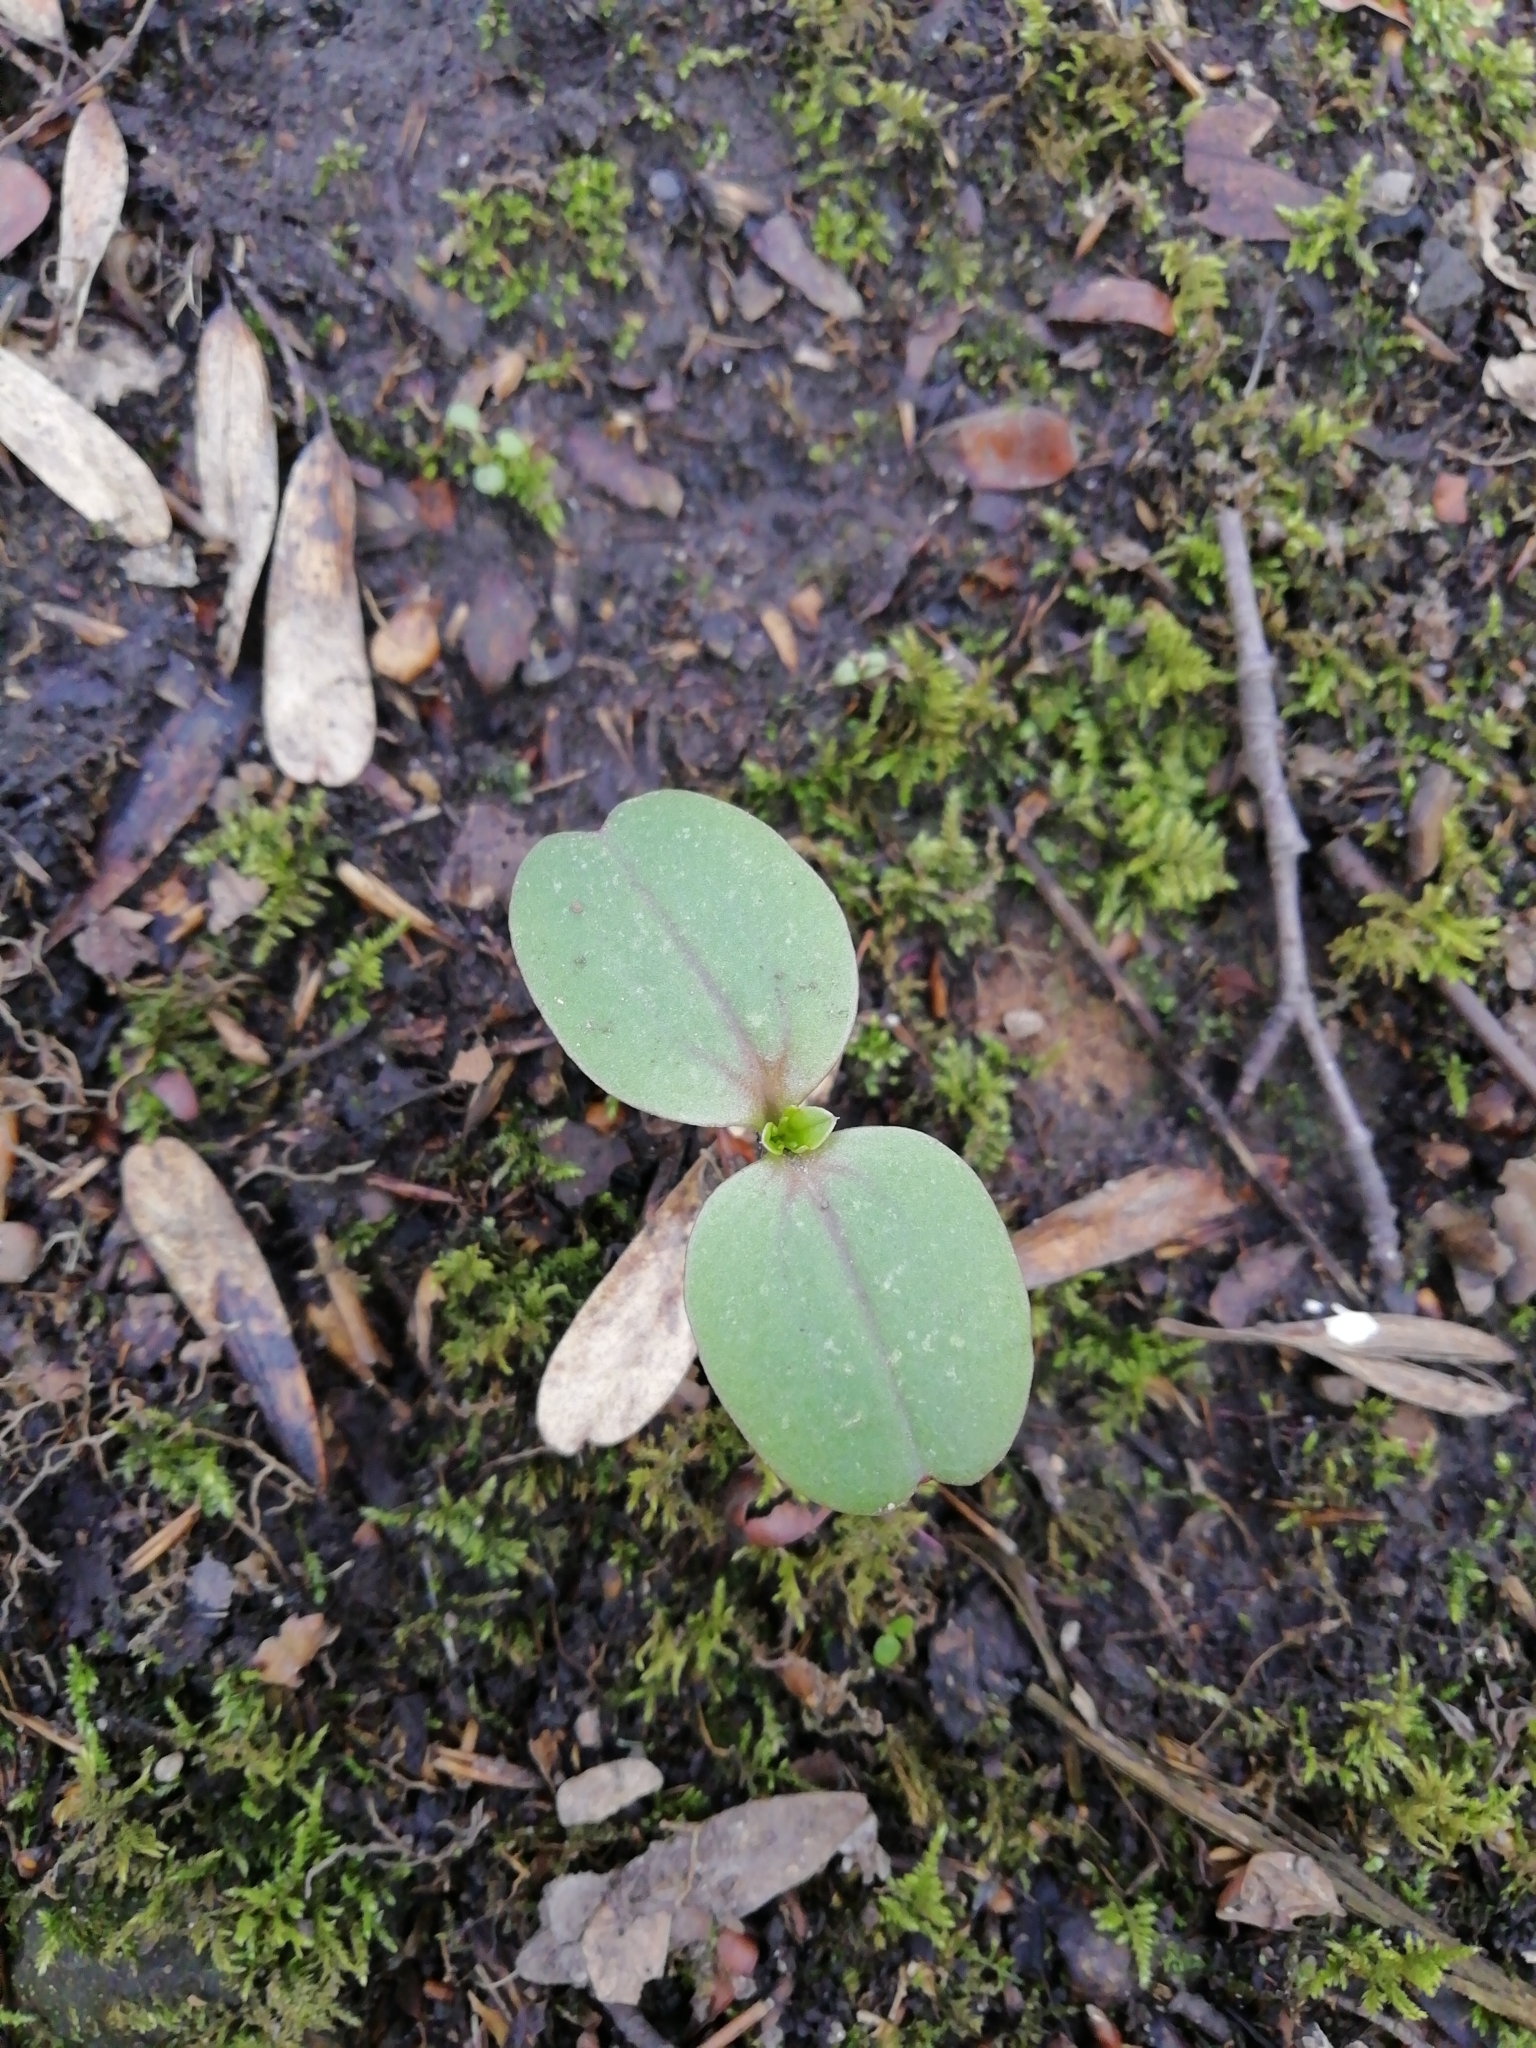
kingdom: Plantae
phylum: Tracheophyta
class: Magnoliopsida
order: Ericales
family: Balsaminaceae
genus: Impatiens
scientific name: Impatiens glandulifera
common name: Himalayan balsam
